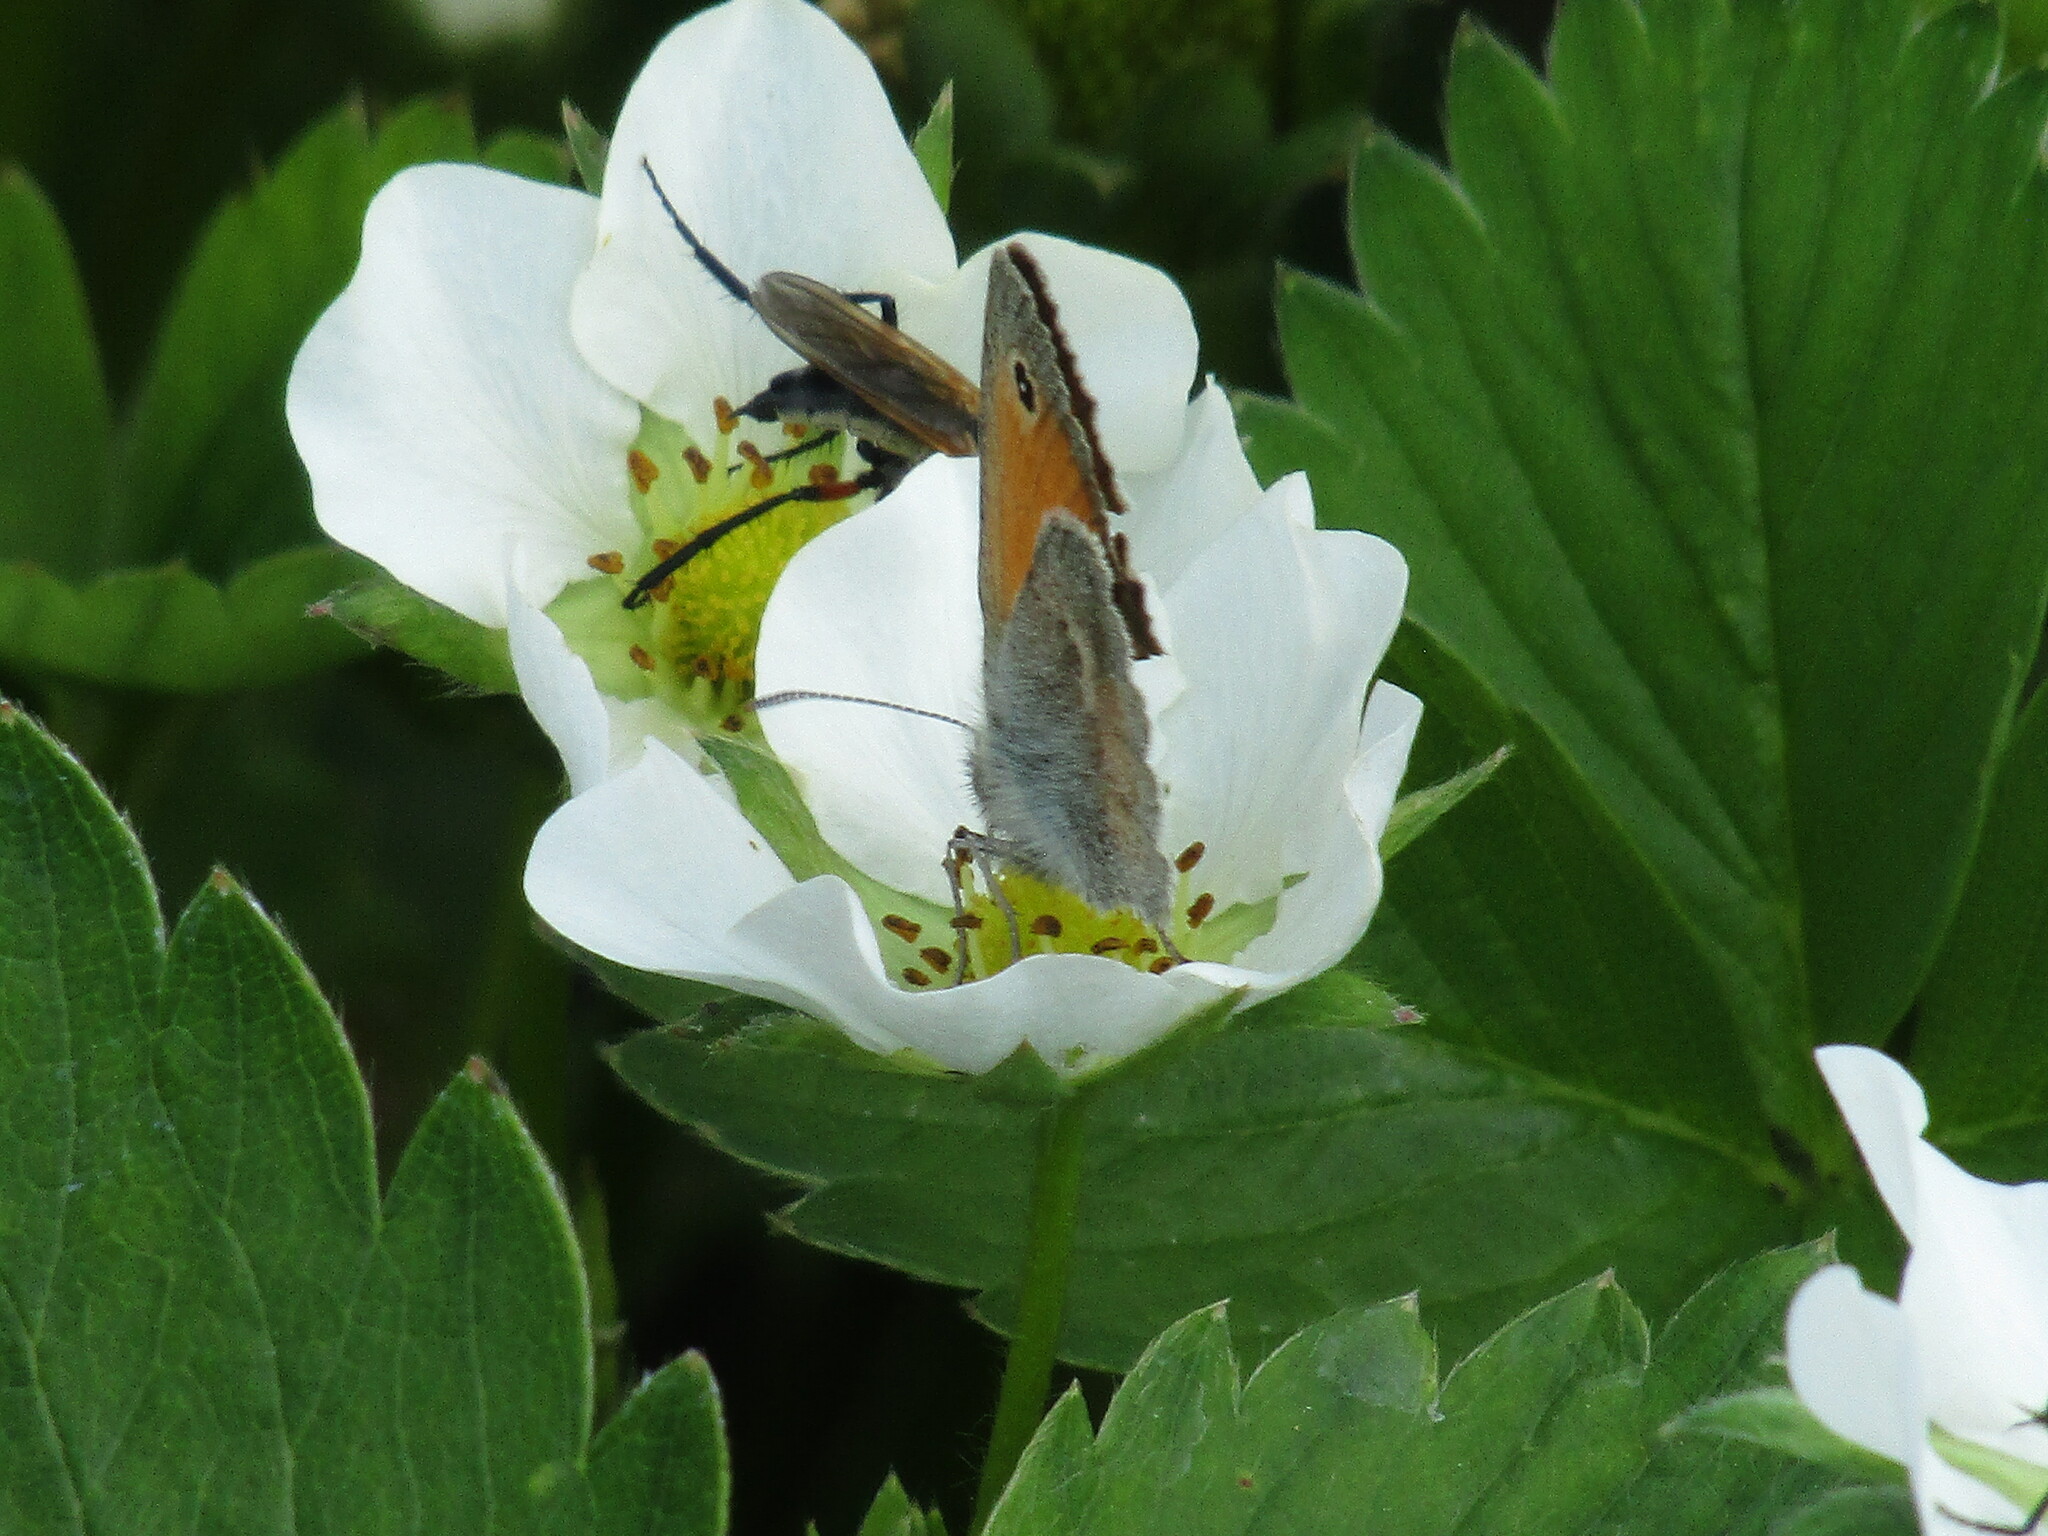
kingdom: Animalia
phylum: Arthropoda
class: Insecta
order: Lepidoptera
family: Nymphalidae
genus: Coenonympha
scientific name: Coenonympha pamphilus
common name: Small heath
